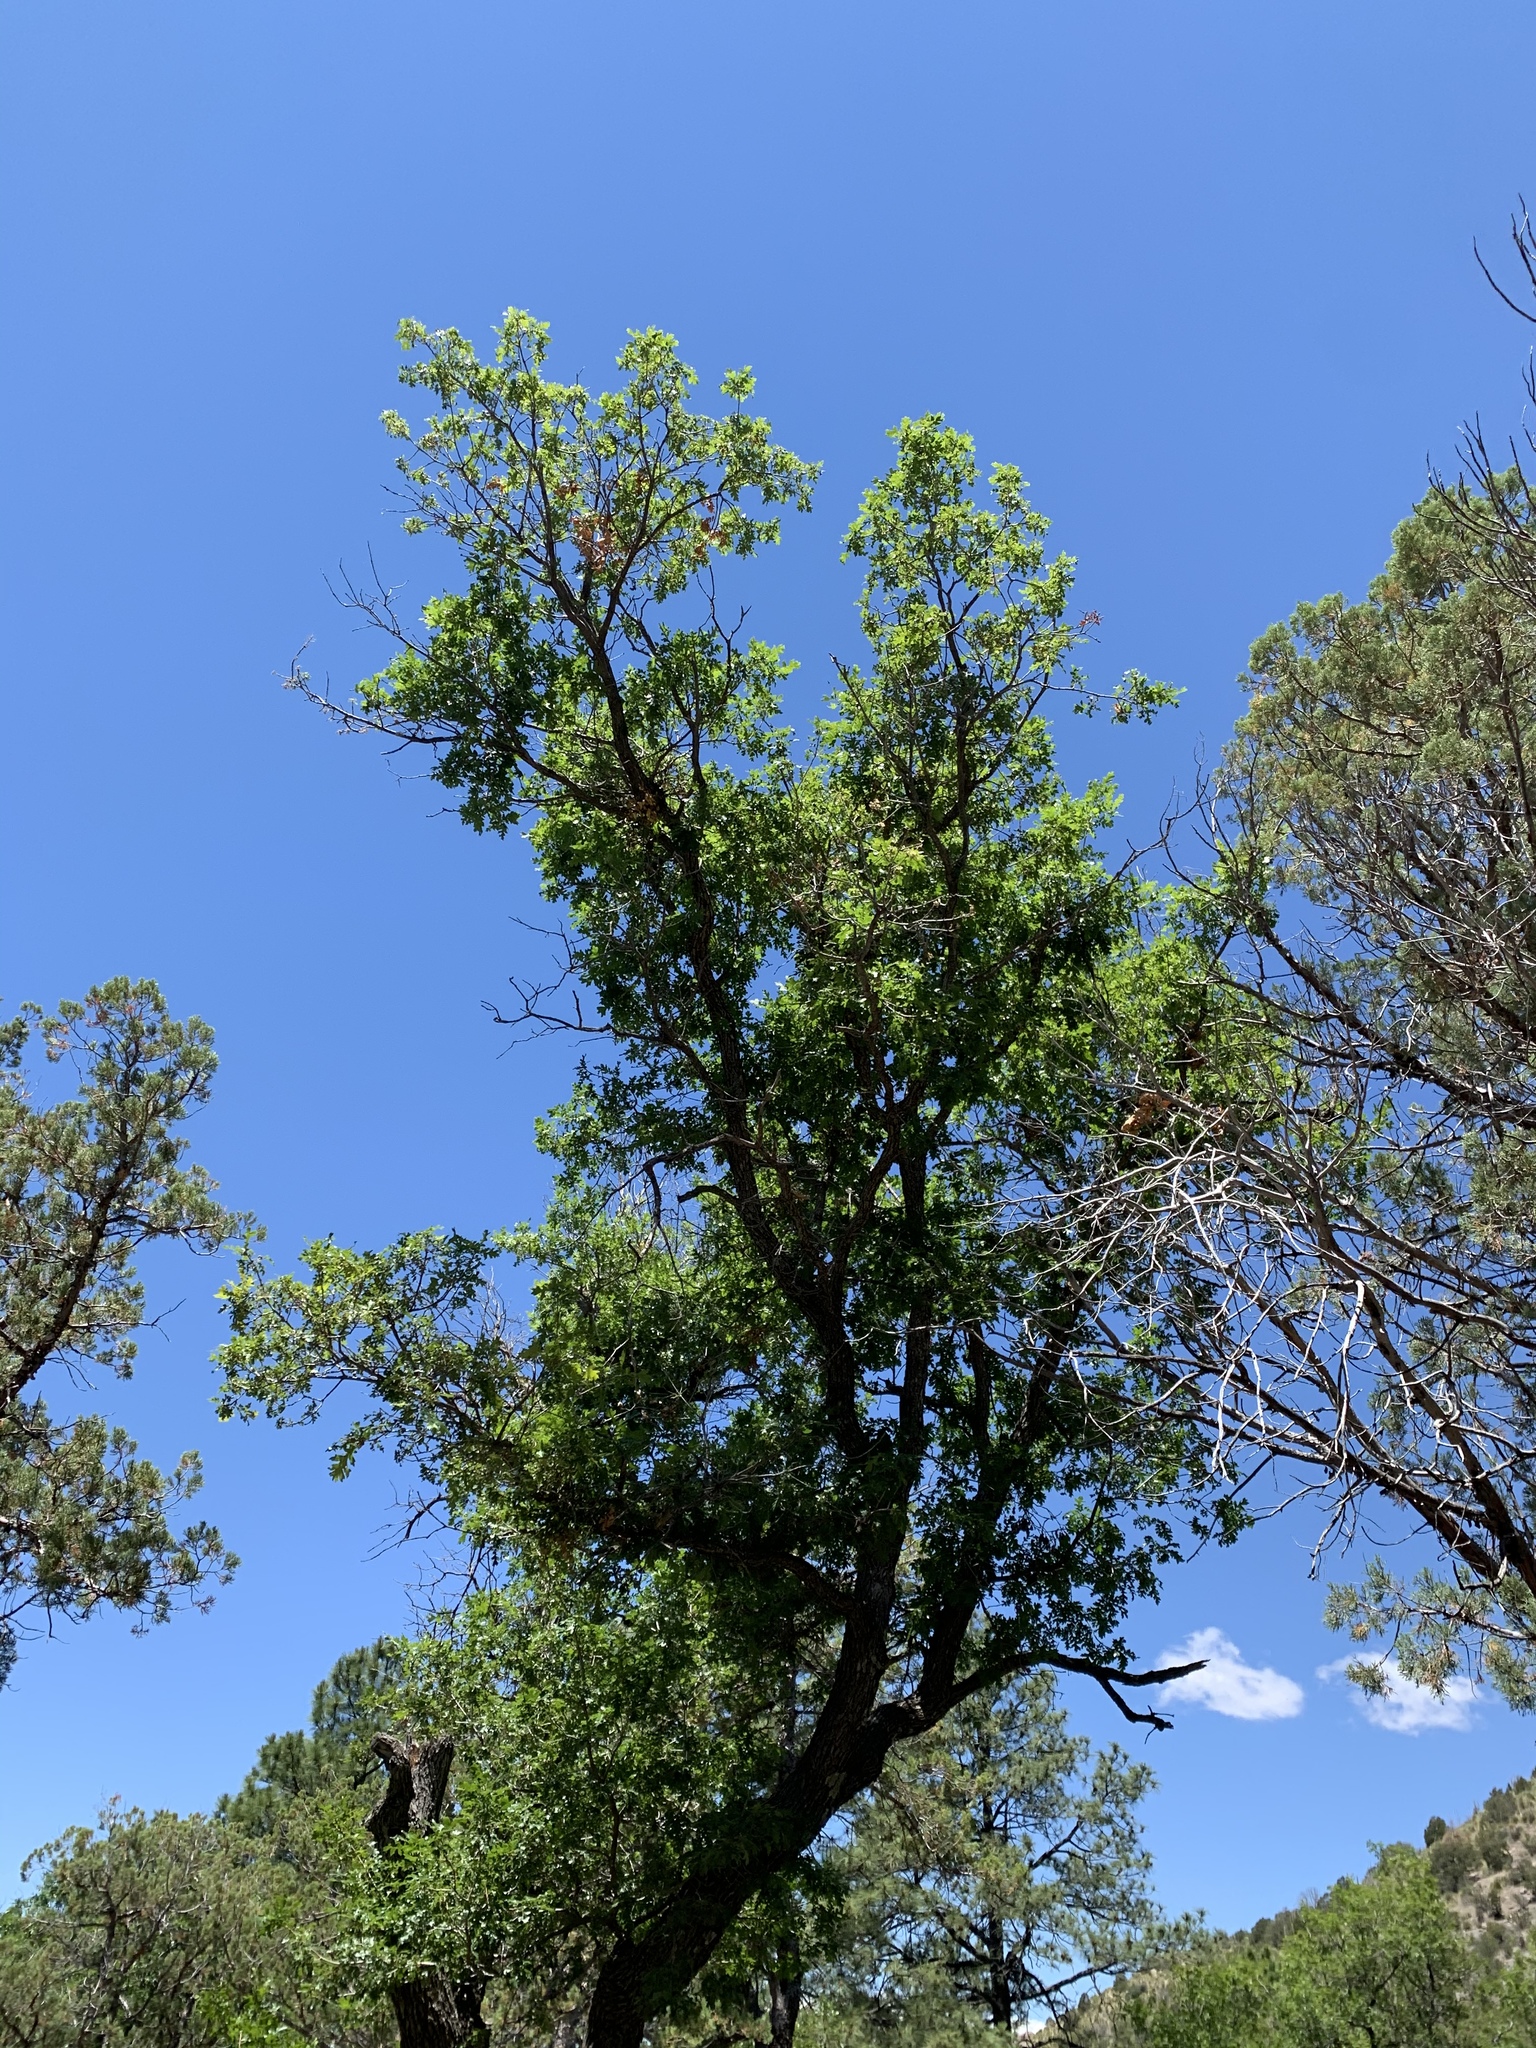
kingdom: Plantae
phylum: Tracheophyta
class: Magnoliopsida
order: Fagales
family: Fagaceae
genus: Quercus
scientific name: Quercus gambelii
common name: Gambel oak
